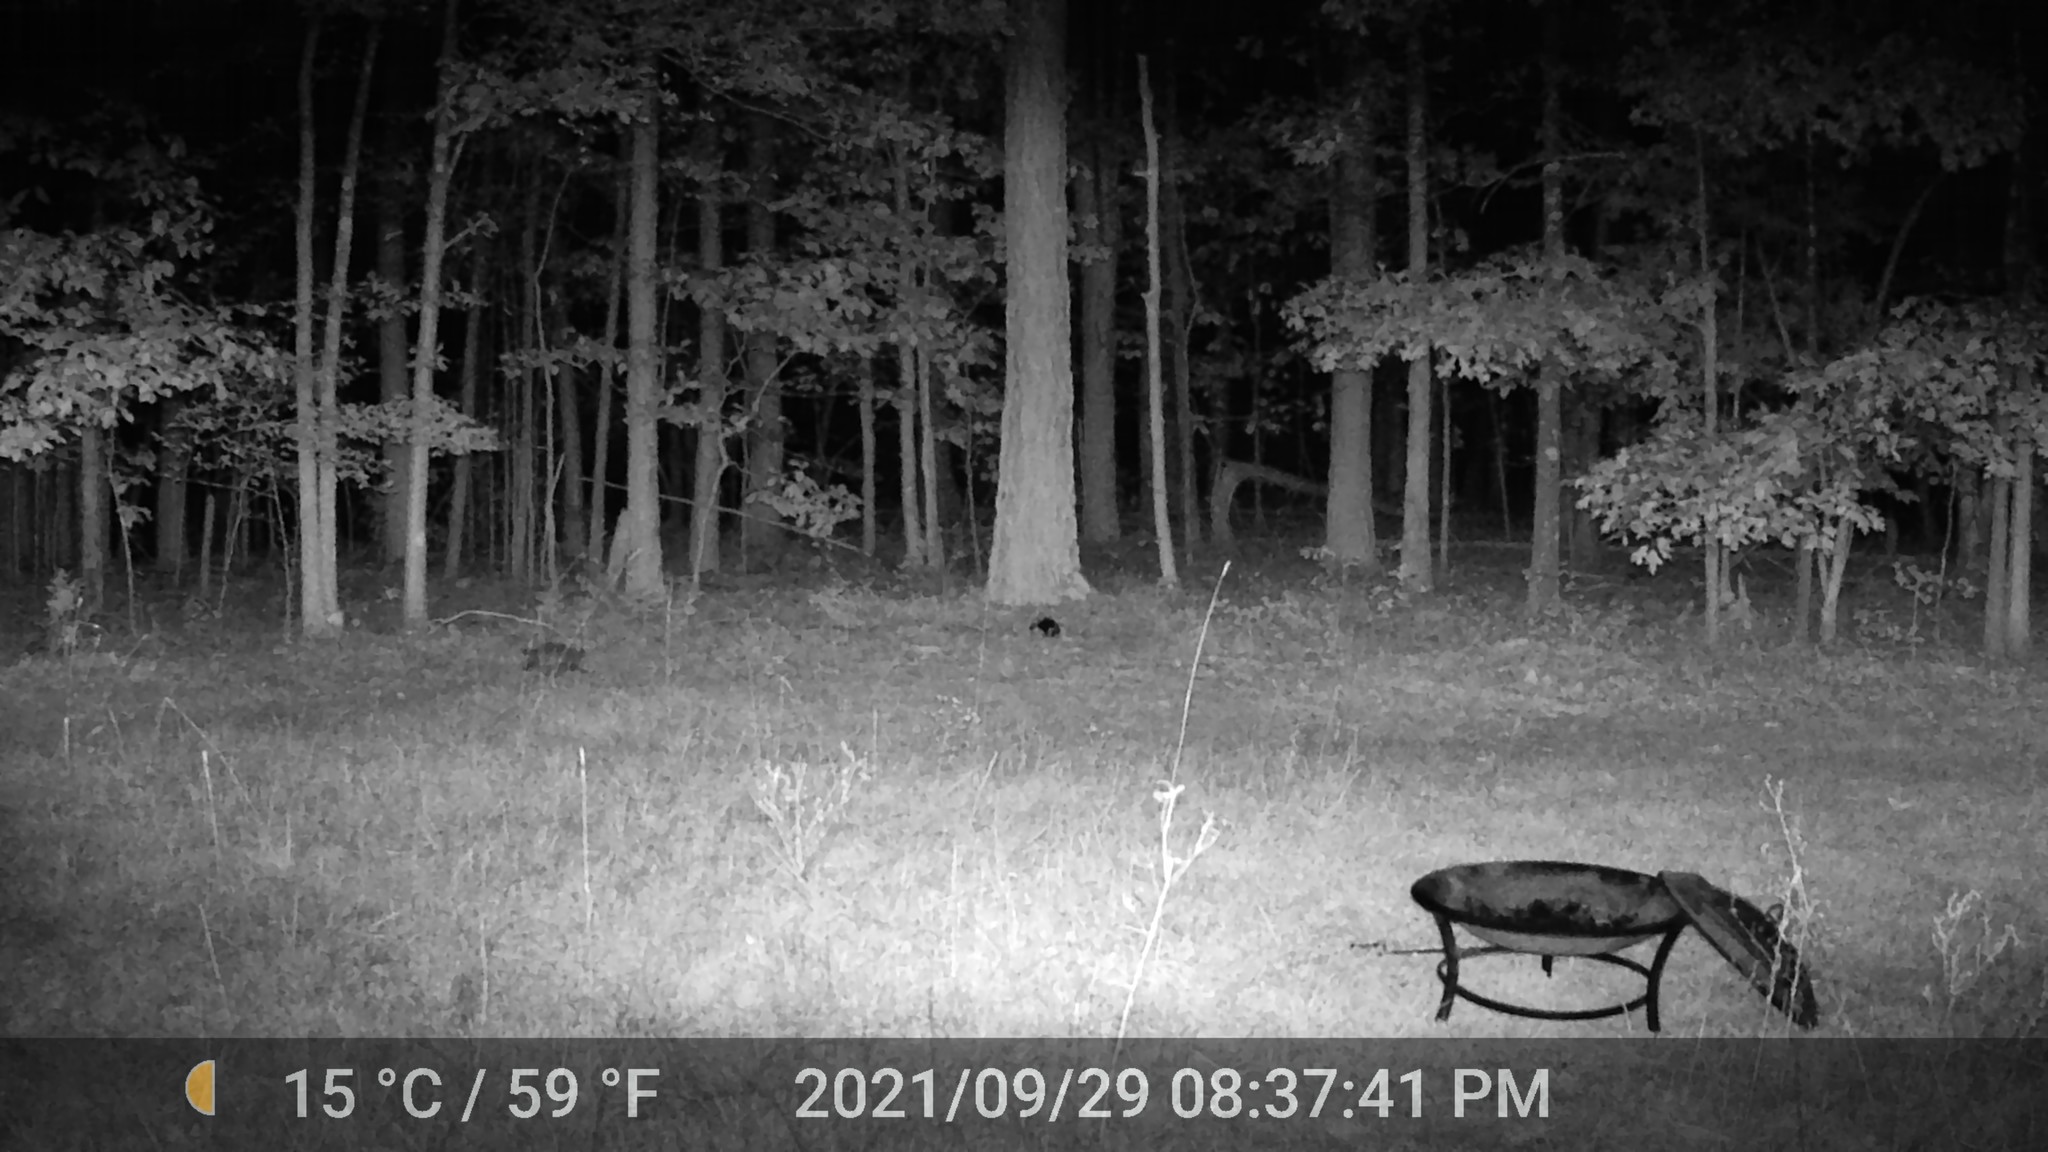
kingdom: Animalia
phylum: Chordata
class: Mammalia
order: Didelphimorphia
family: Didelphidae
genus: Didelphis
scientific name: Didelphis virginiana
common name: Virginia opossum
